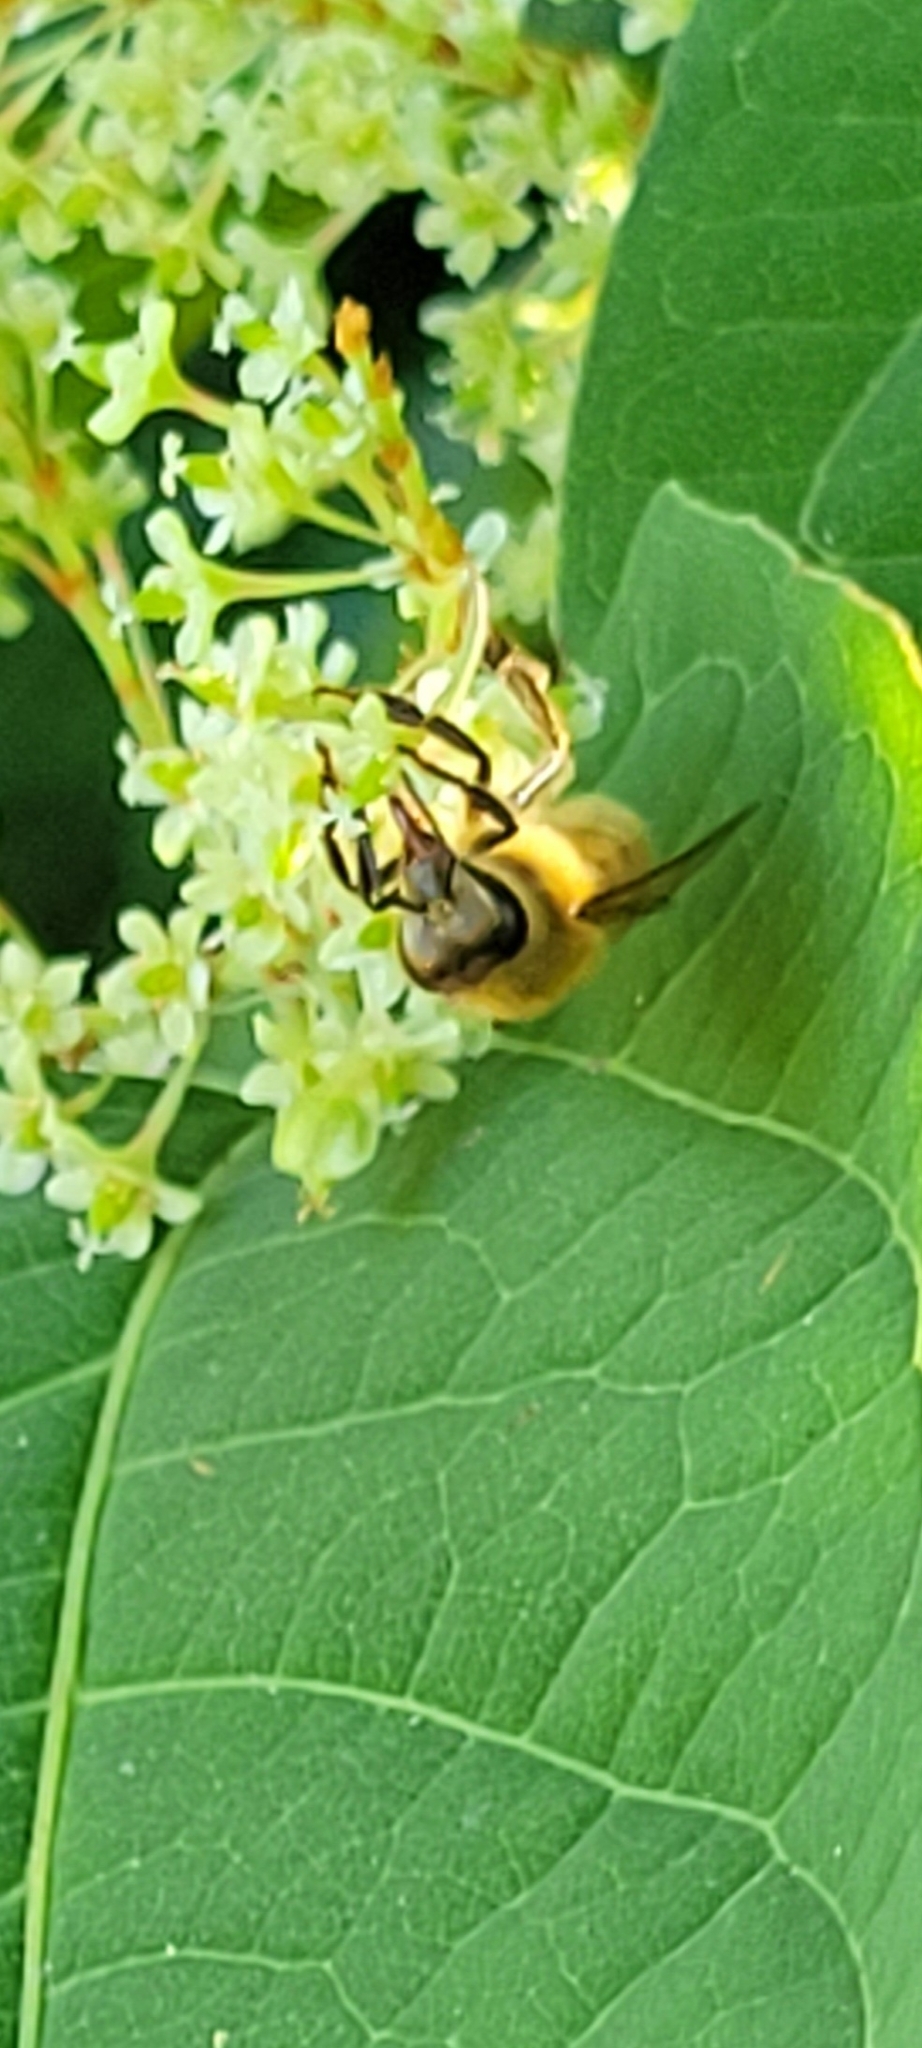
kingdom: Animalia
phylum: Arthropoda
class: Insecta
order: Hymenoptera
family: Apidae
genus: Apis
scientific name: Apis mellifera
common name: Honey bee
